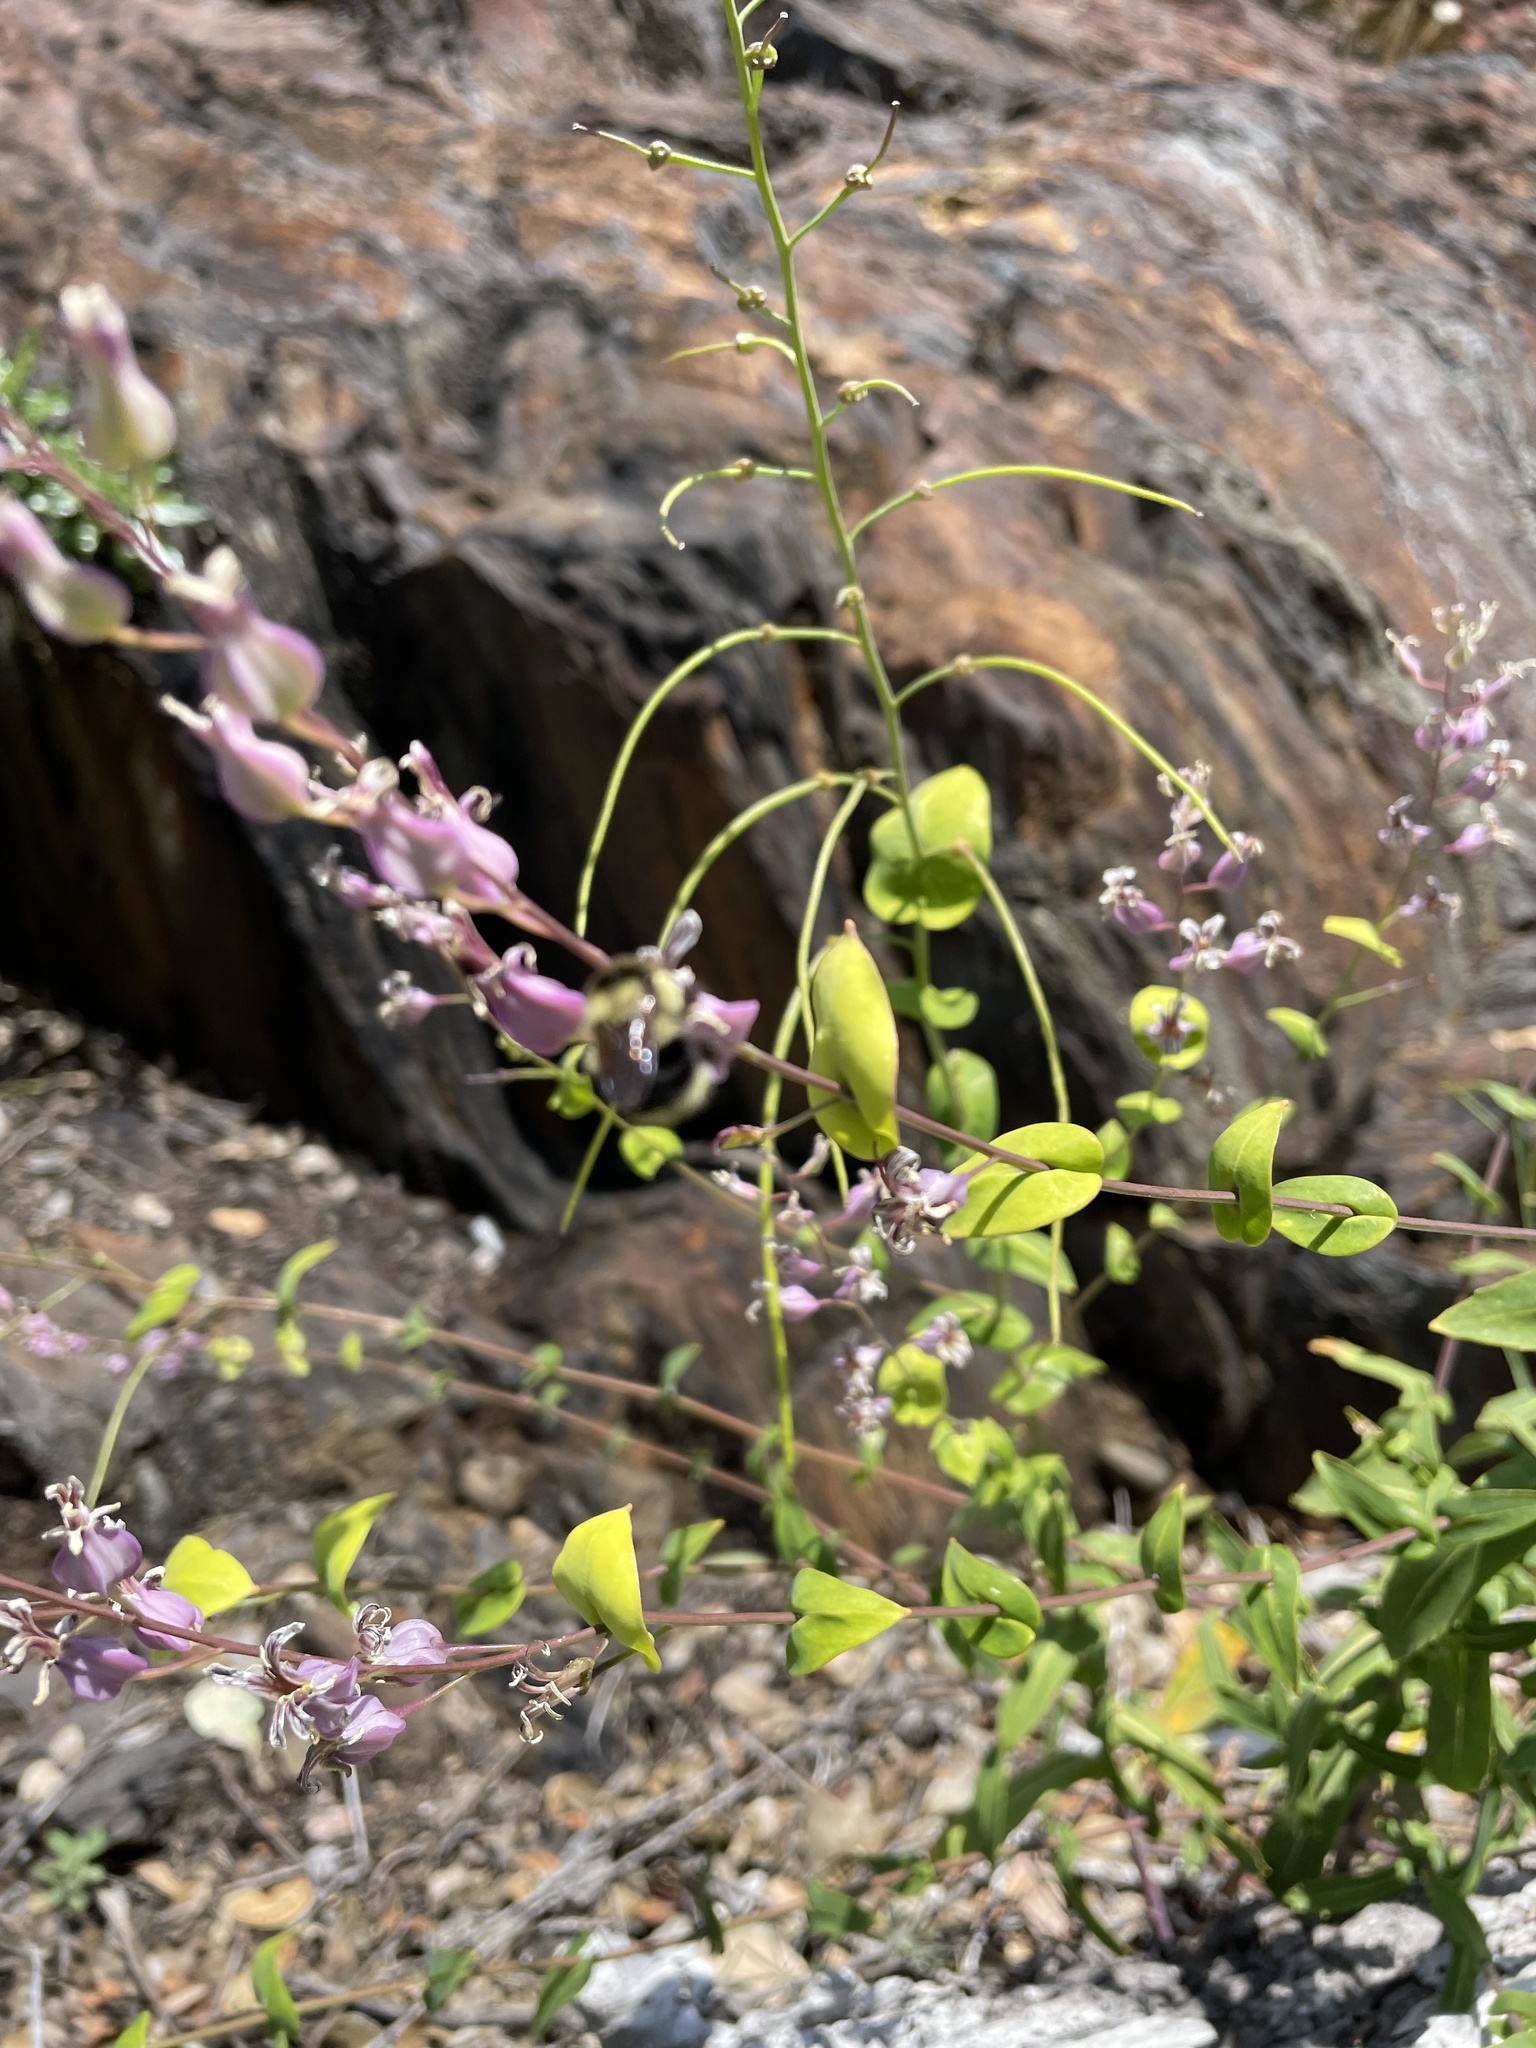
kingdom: Plantae
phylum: Tracheophyta
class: Magnoliopsida
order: Brassicales
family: Brassicaceae
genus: Streptanthus
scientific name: Streptanthus tortuosus
